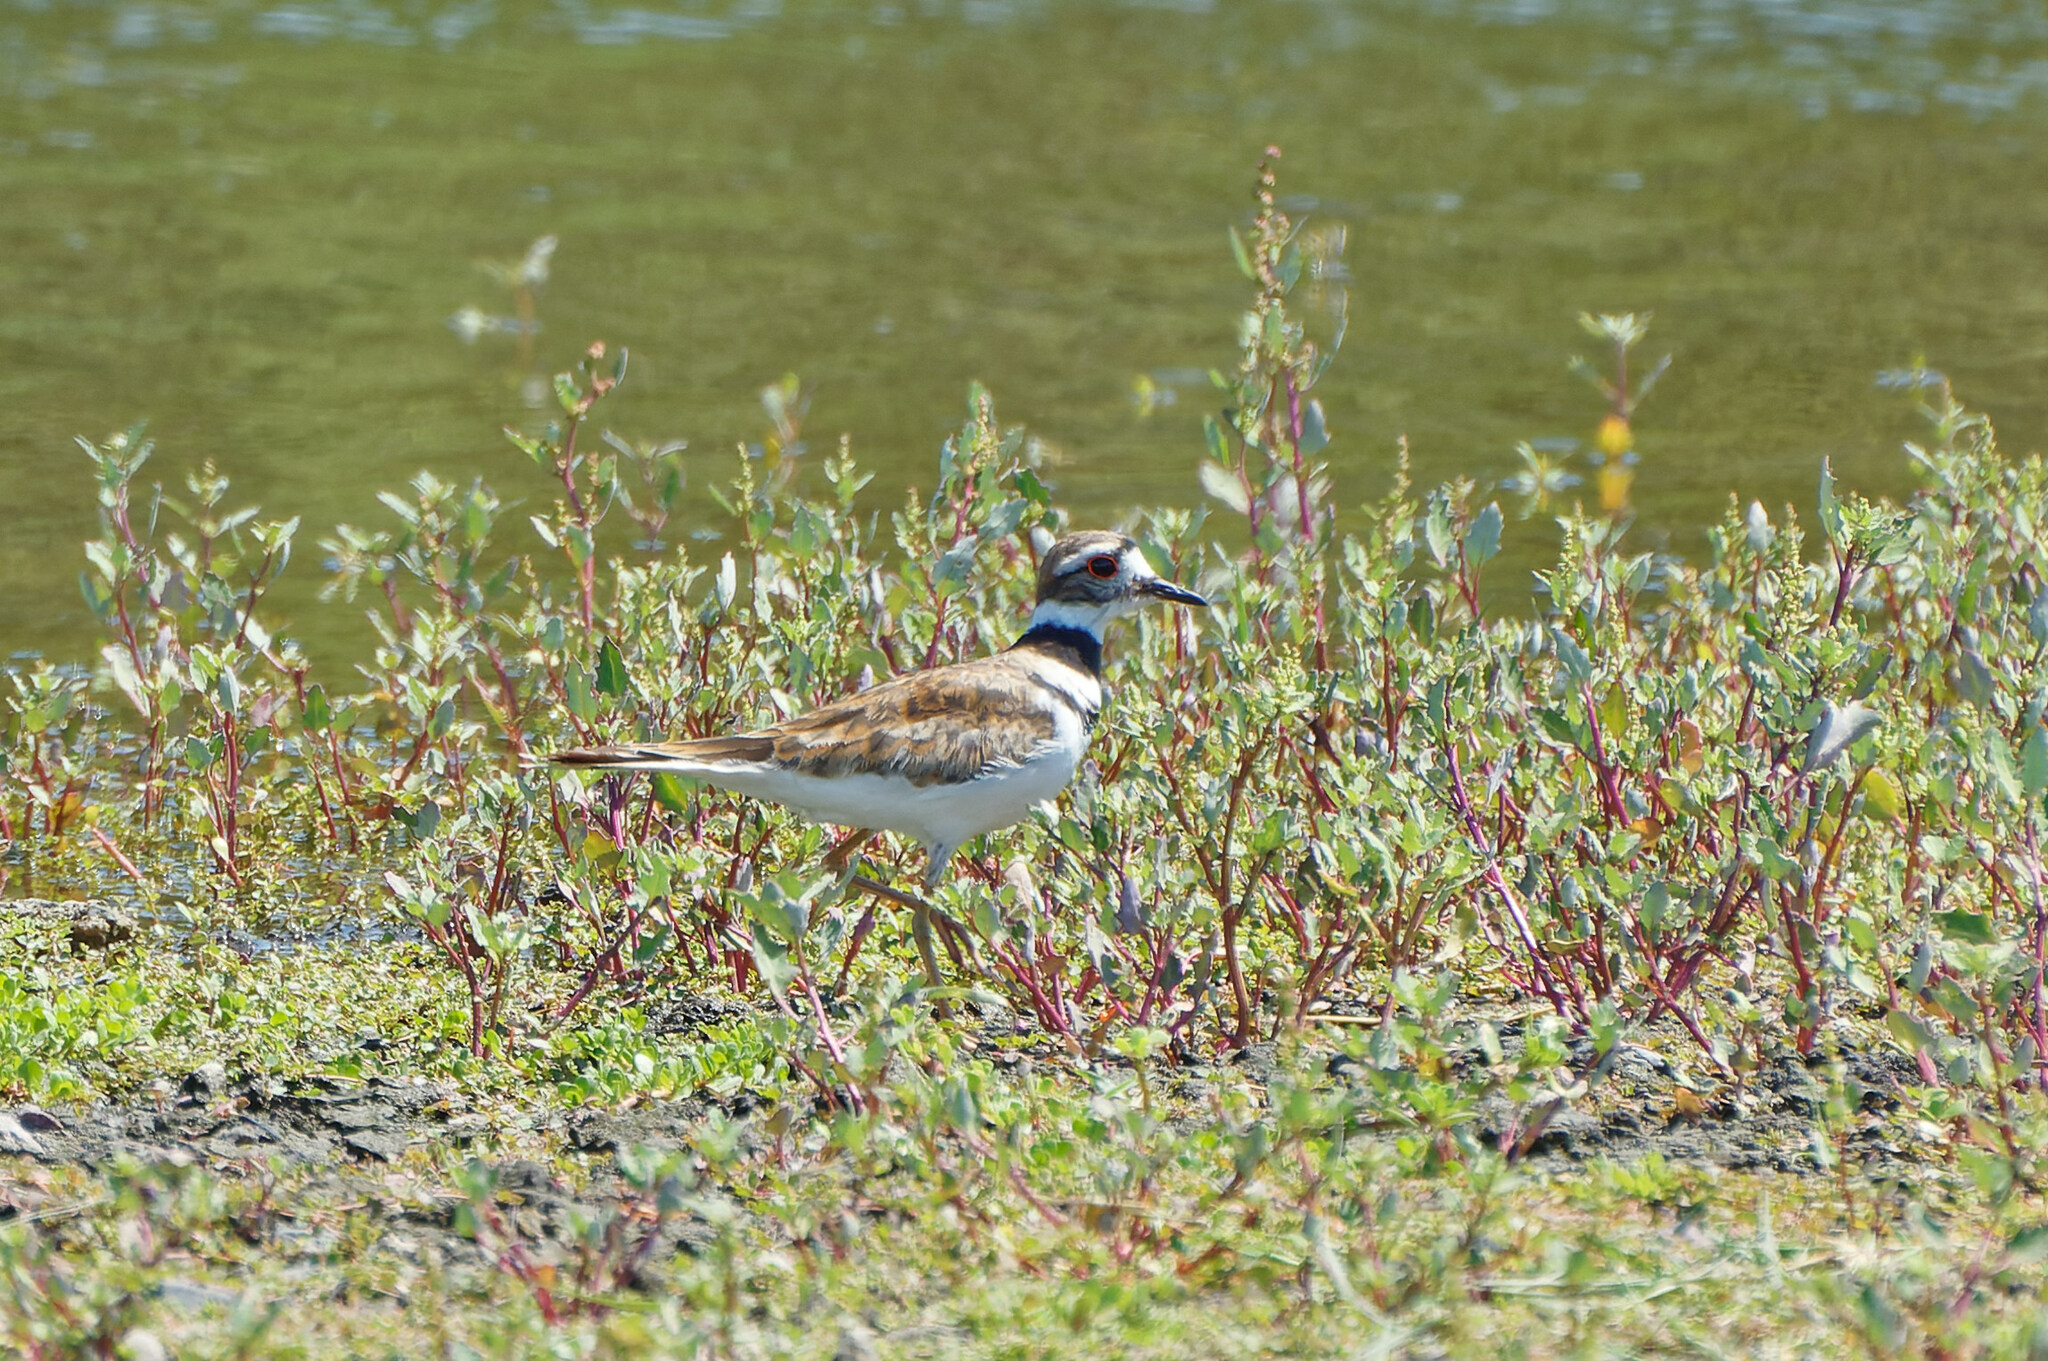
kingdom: Animalia
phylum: Chordata
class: Aves
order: Charadriiformes
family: Charadriidae
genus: Charadrius
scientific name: Charadrius vociferus
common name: Killdeer
